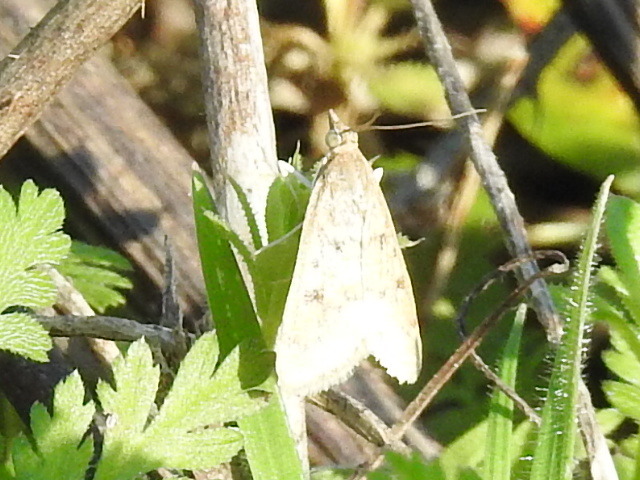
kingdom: Animalia
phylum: Arthropoda
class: Insecta
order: Lepidoptera
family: Crambidae
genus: Udea
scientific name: Udea rubigalis
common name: Celery leaftier moth
